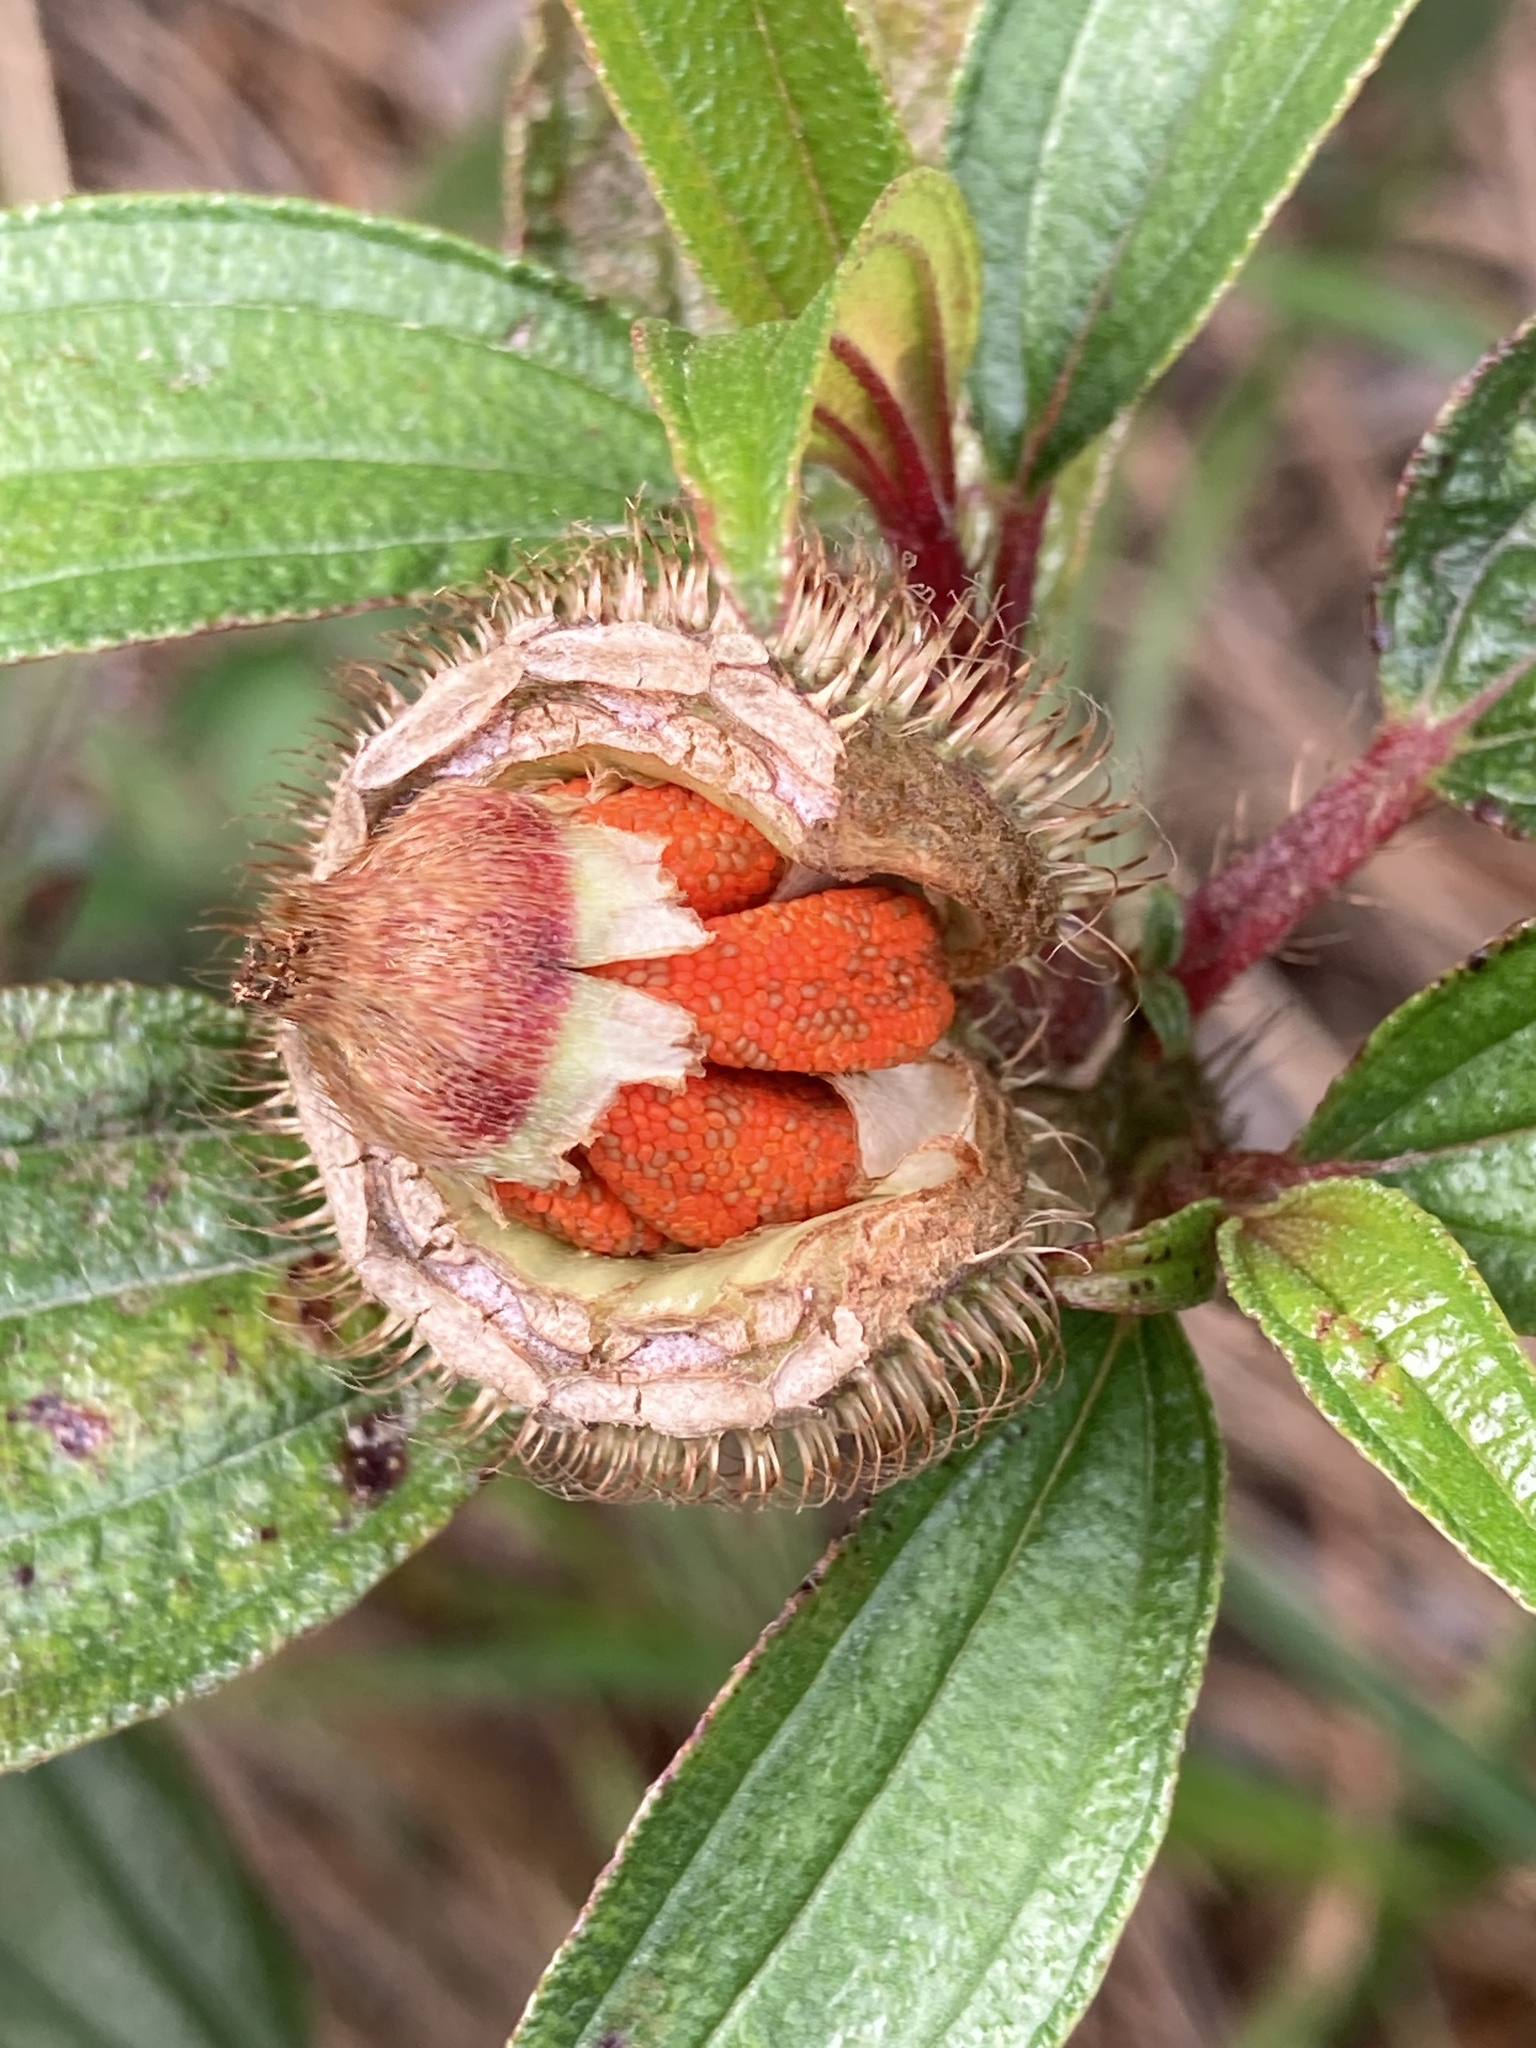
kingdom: Plantae
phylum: Tracheophyta
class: Magnoliopsida
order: Myrtales
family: Melastomataceae
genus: Melastoma
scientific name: Melastoma sanguineum
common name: Red melastome
